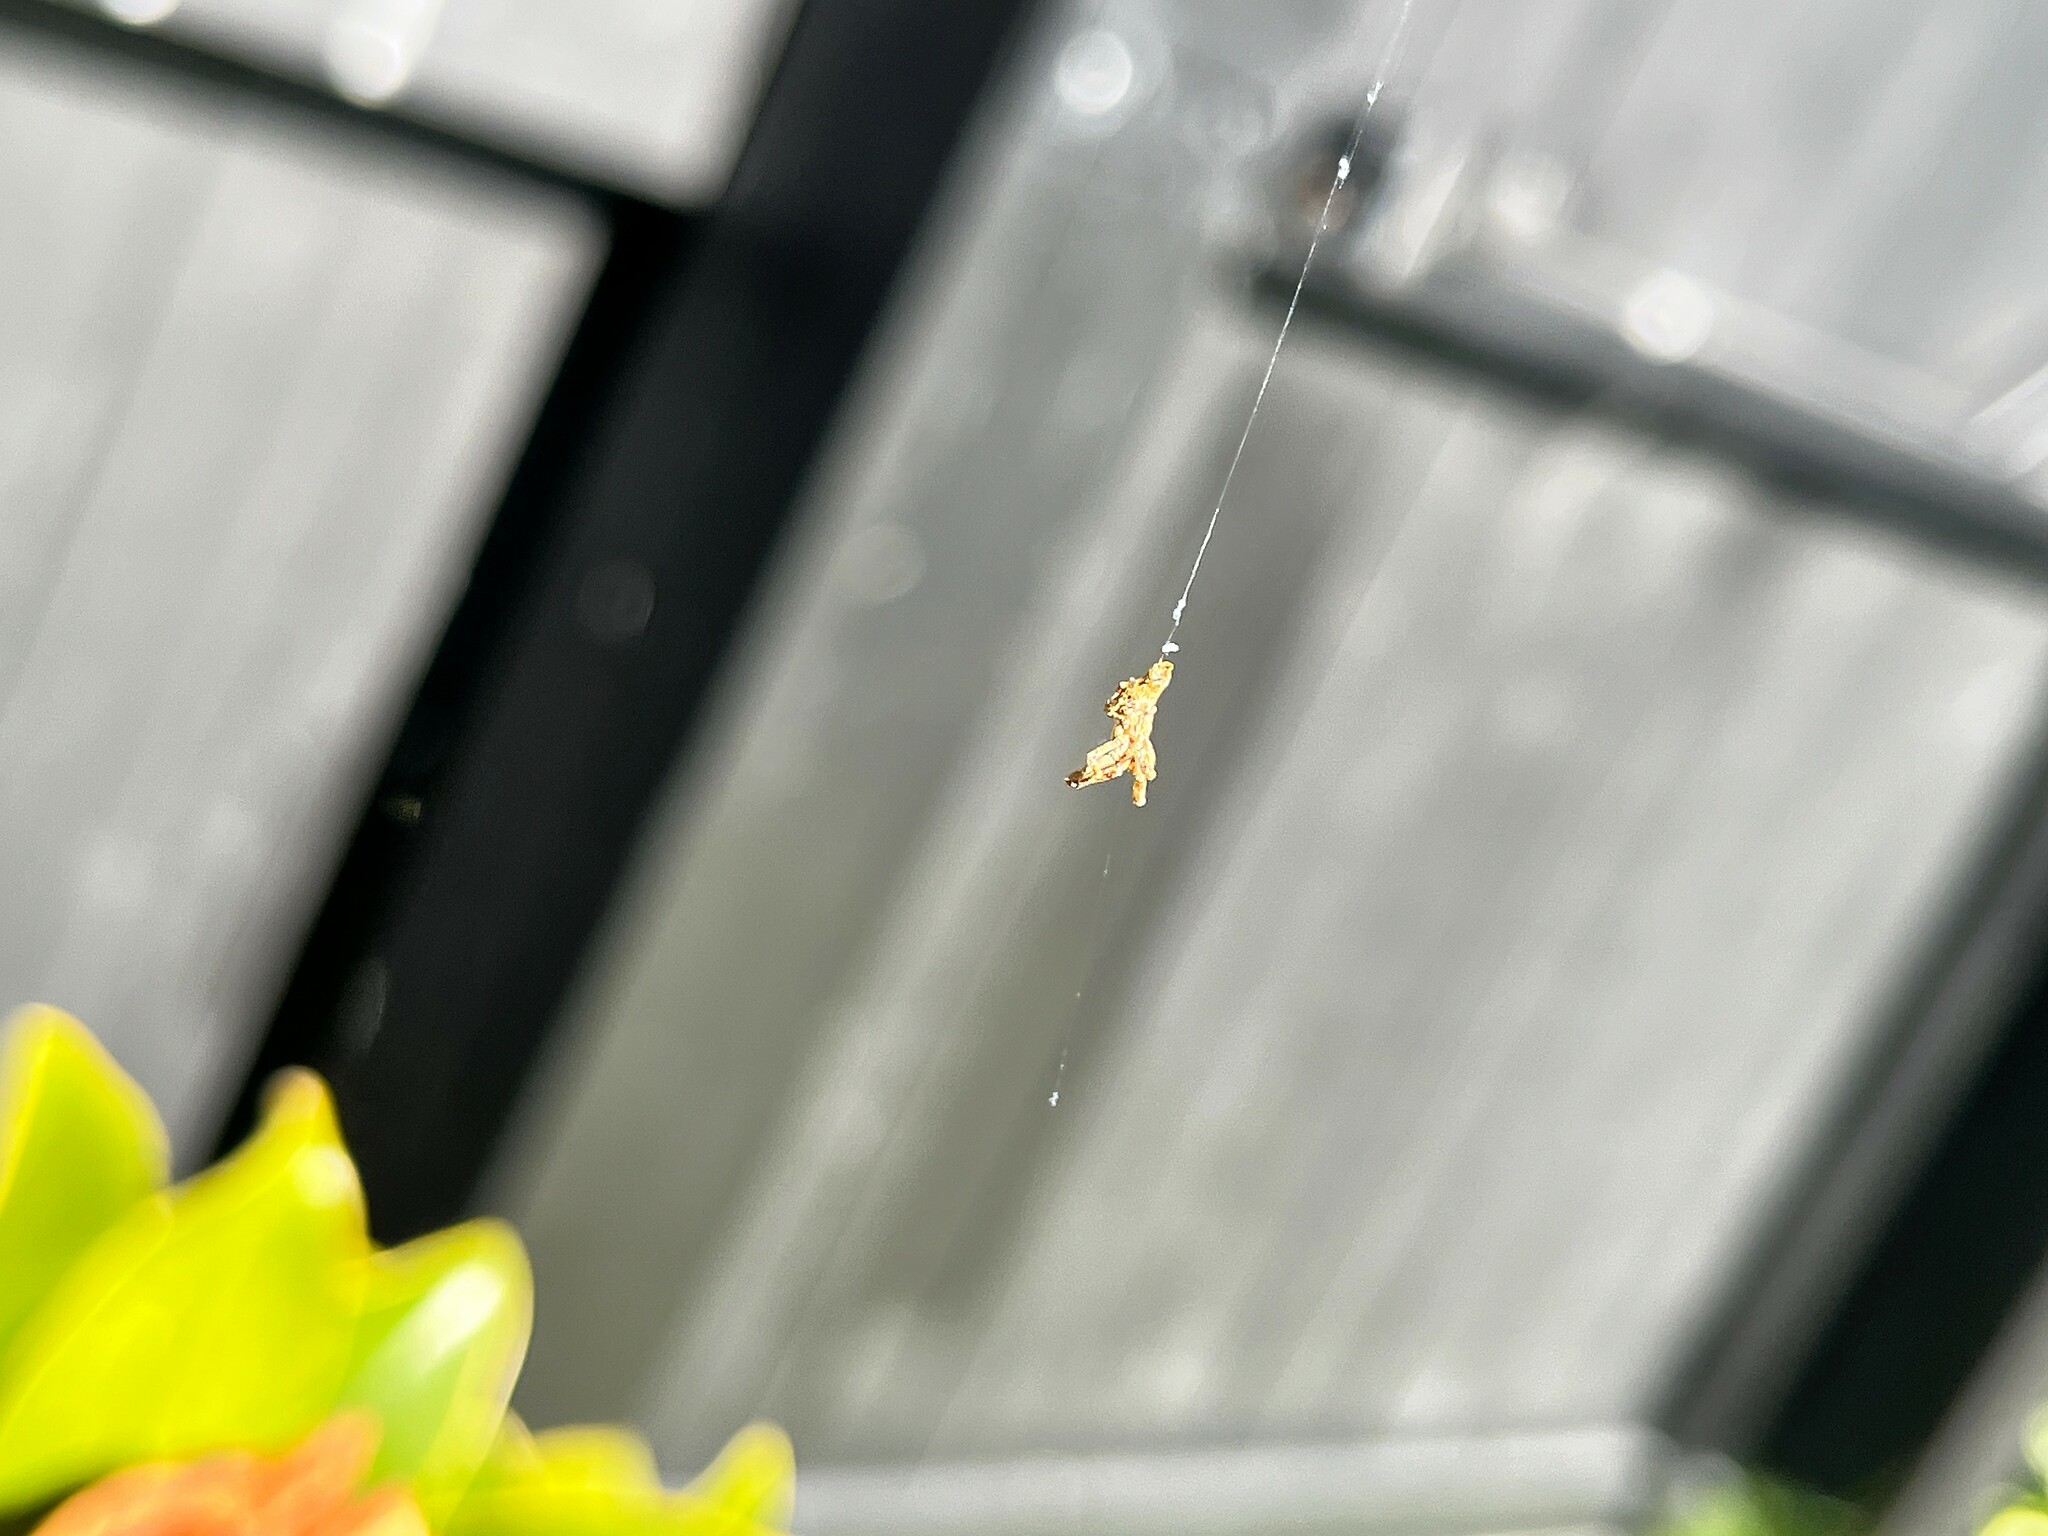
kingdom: Animalia
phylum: Arthropoda
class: Arachnida
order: Araneae
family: Uloboridae
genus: Philoponella
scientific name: Philoponella congregabilis
